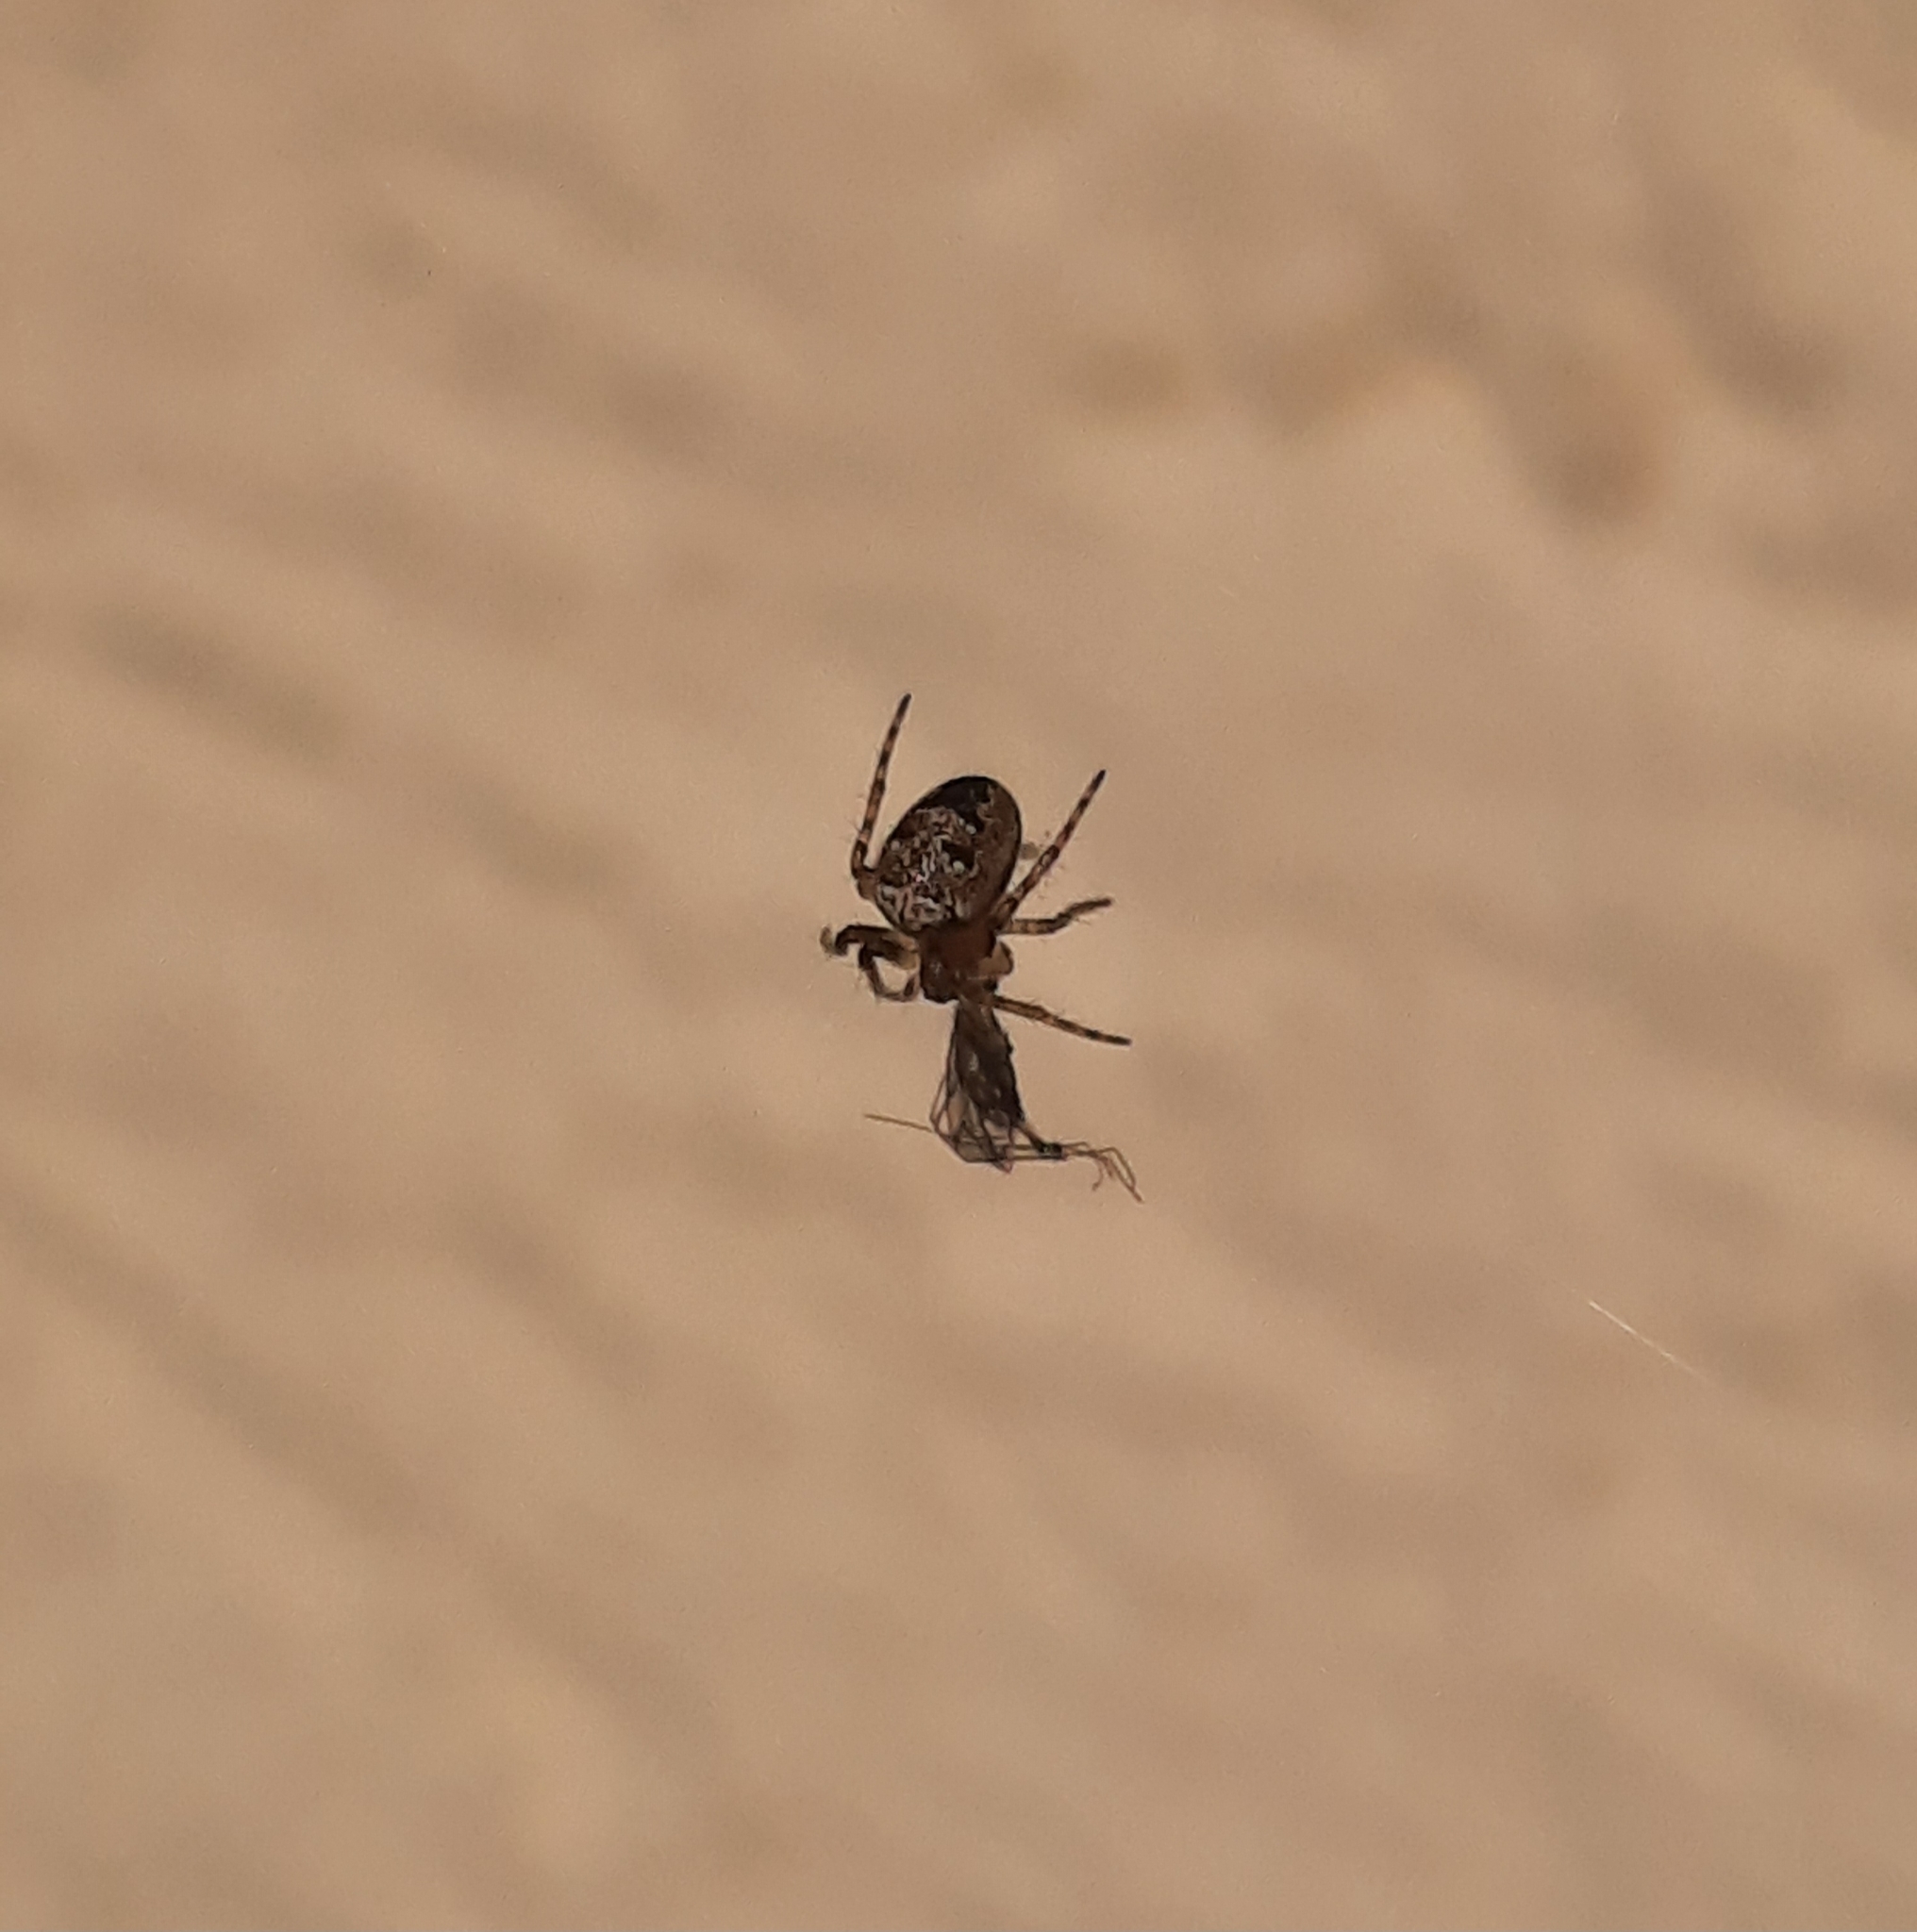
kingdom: Animalia
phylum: Arthropoda
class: Arachnida
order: Araneae
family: Araneidae
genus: Zilla
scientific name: Zilla diodia
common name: Zilla diodia
